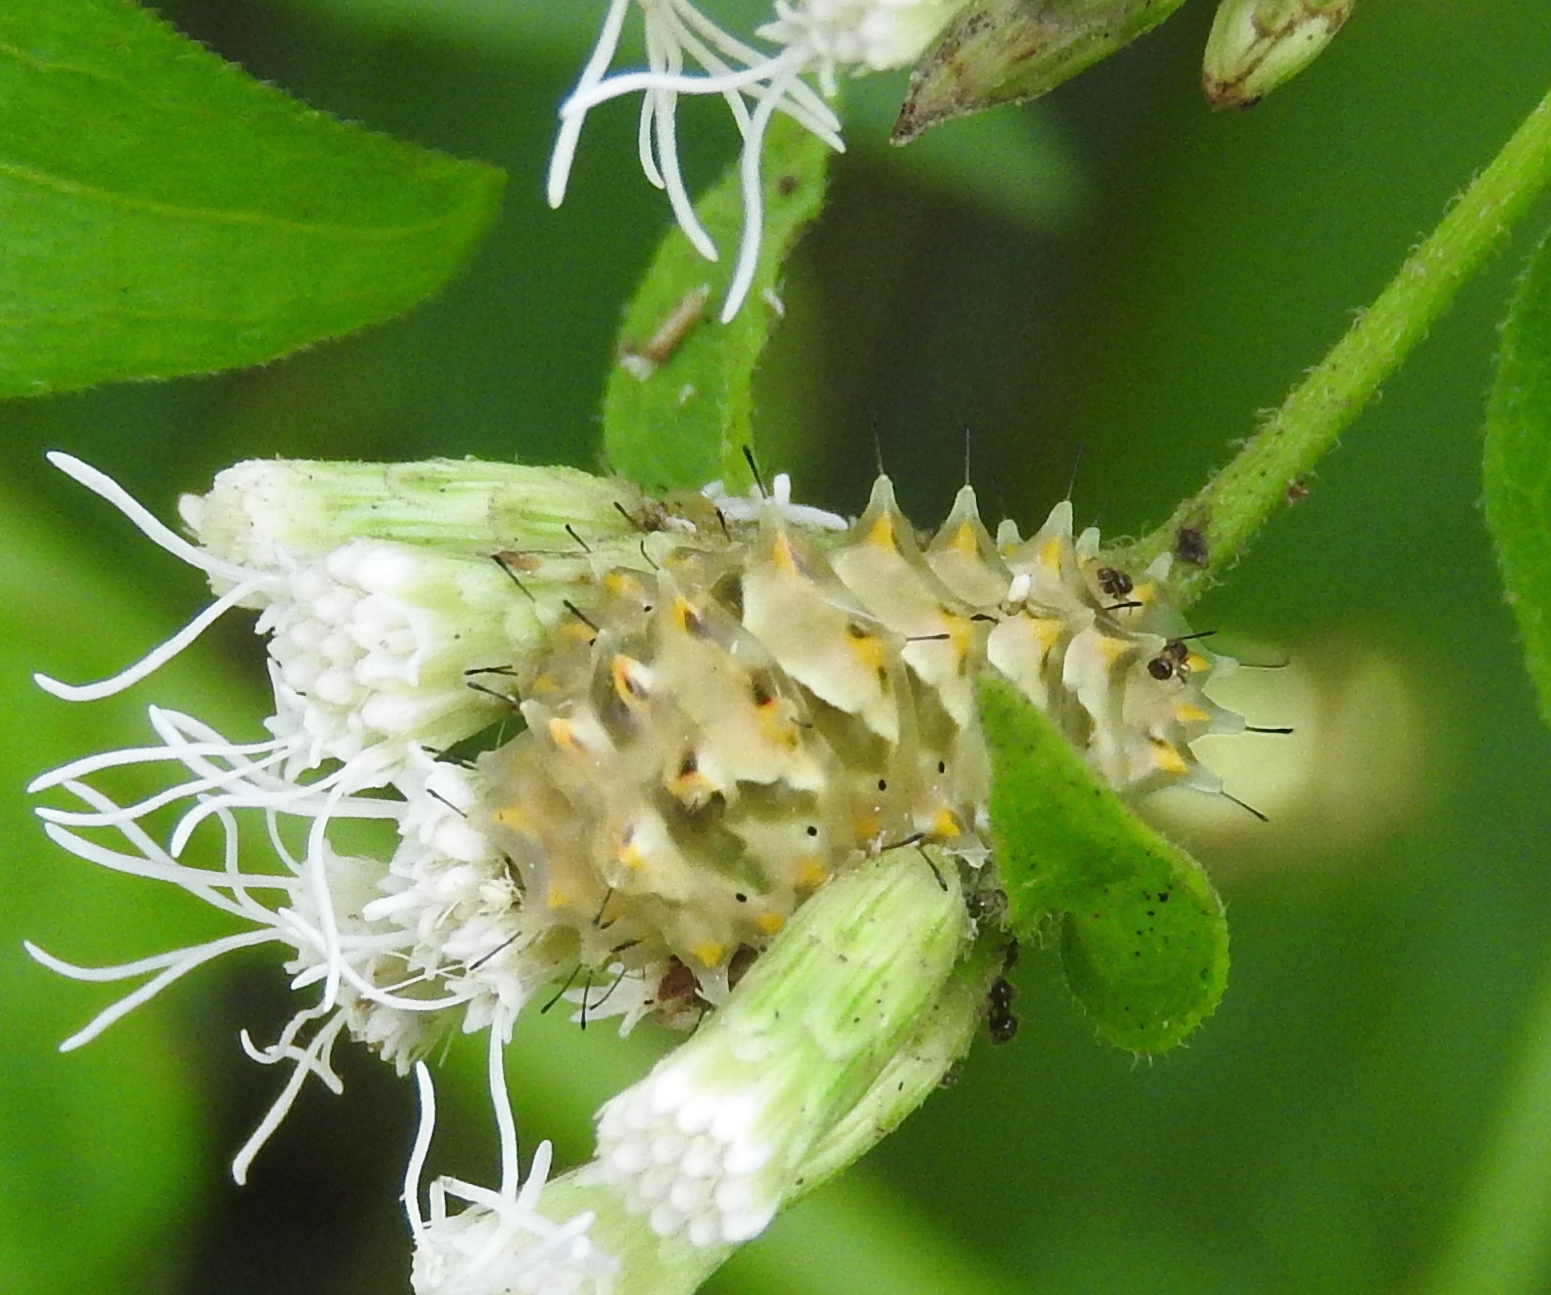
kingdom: Animalia
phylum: Arthropoda
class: Insecta
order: Lepidoptera
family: Lycaenidae
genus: Thecla
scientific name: Thecla marius
